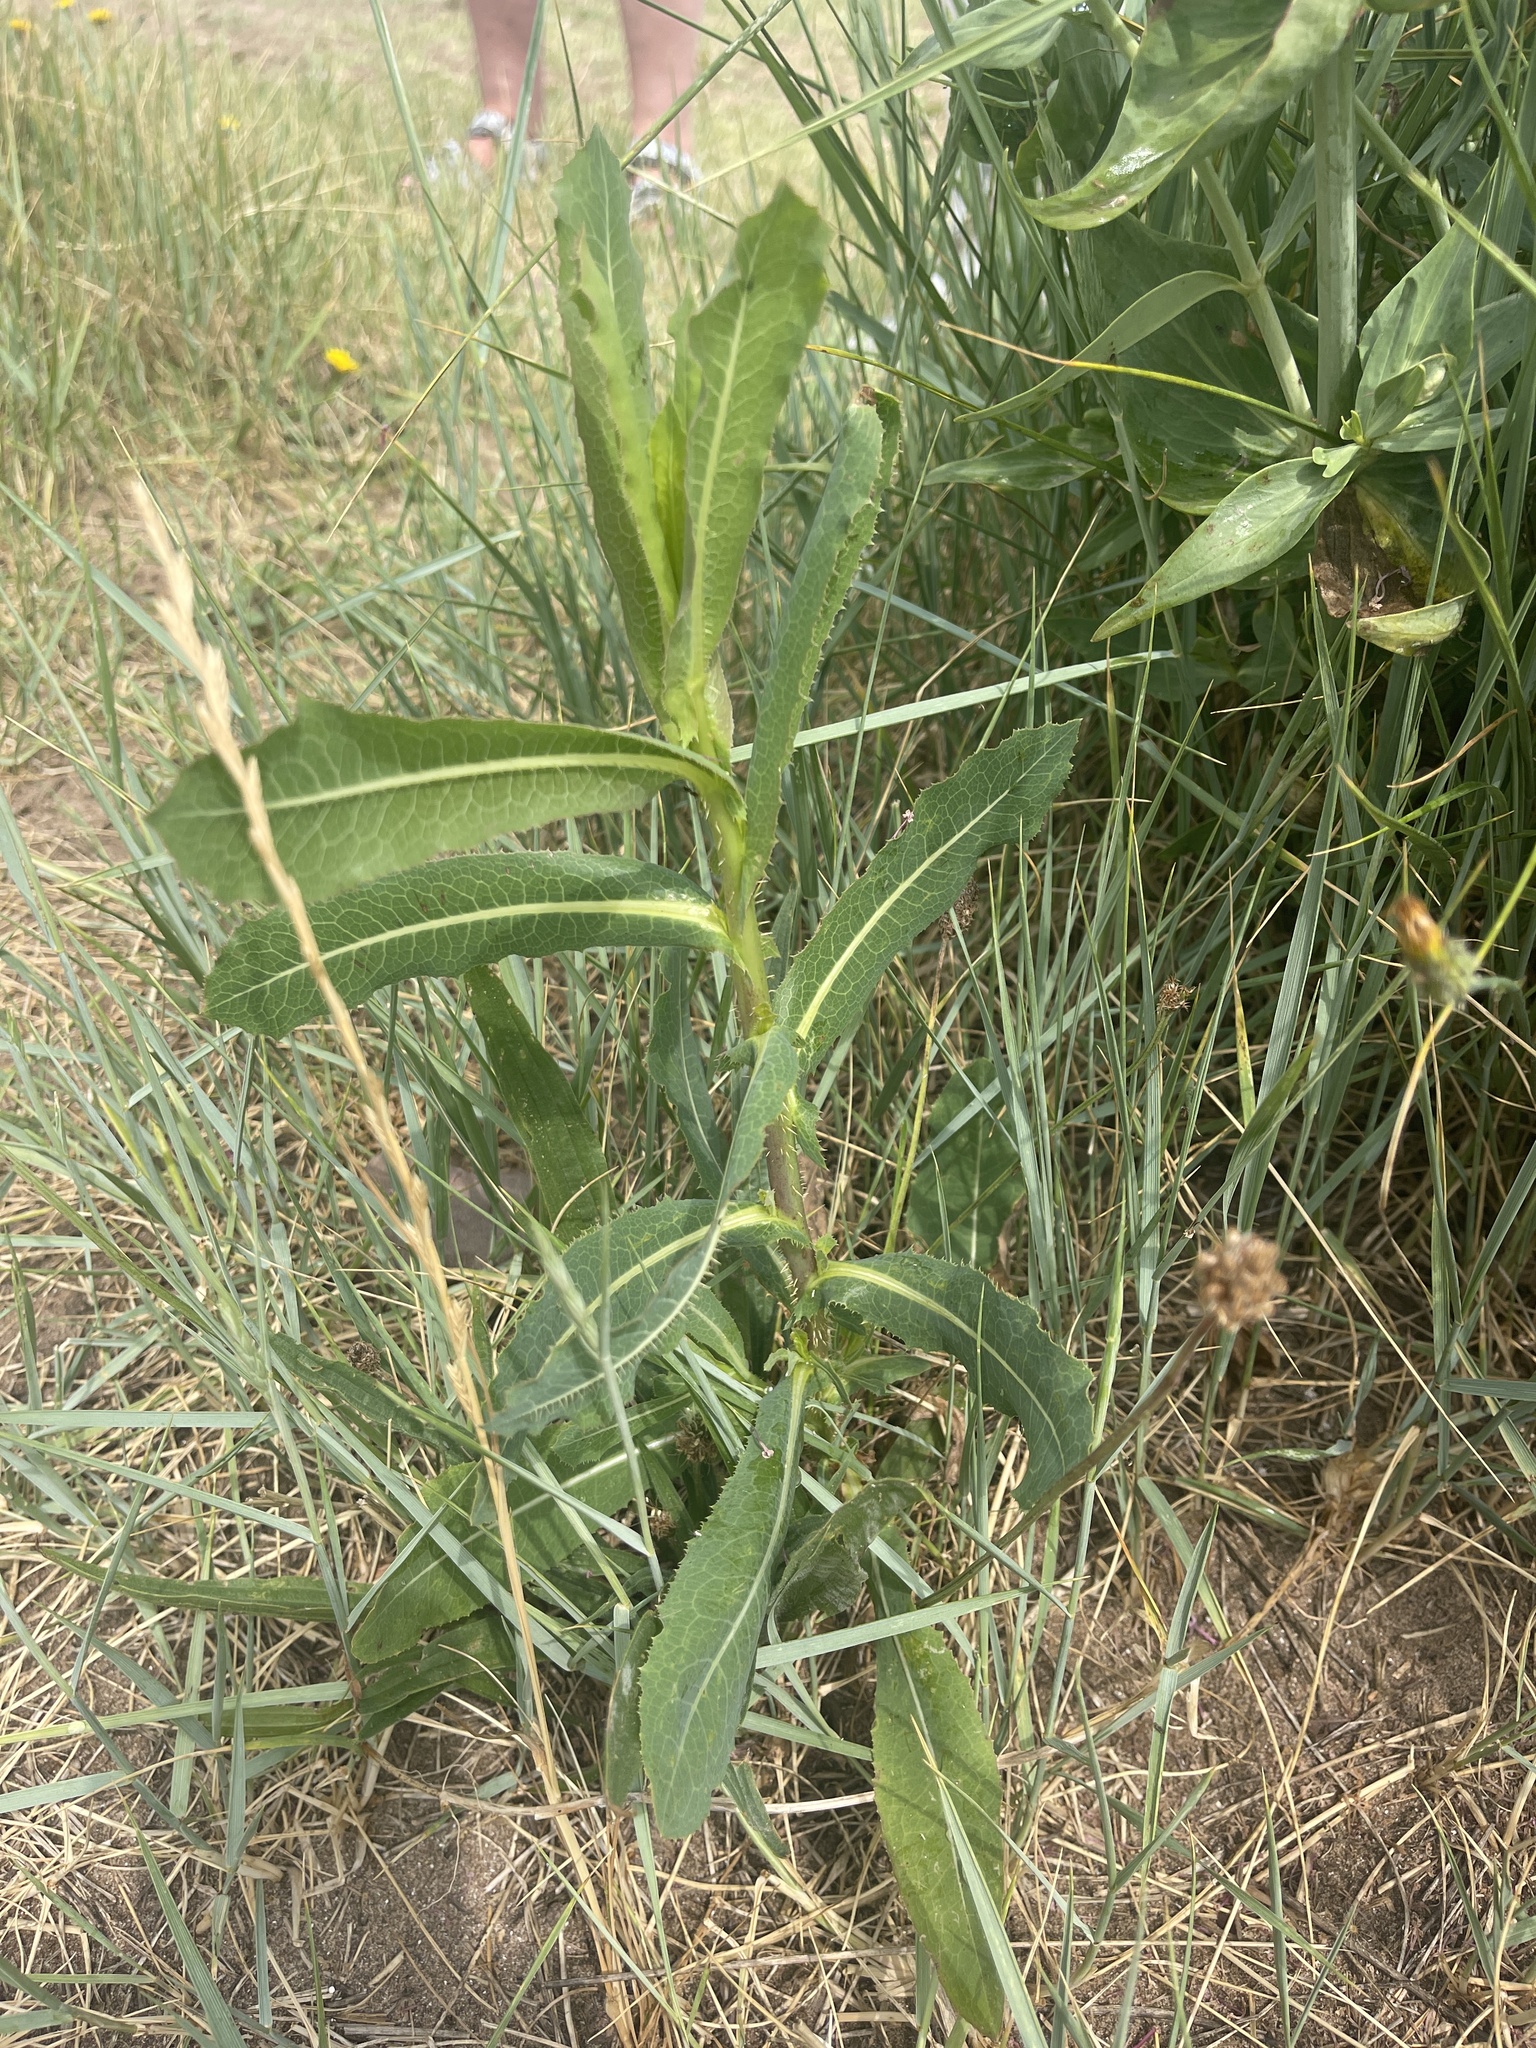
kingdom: Plantae
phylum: Tracheophyta
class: Magnoliopsida
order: Asterales
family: Asteraceae
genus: Lactuca
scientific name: Lactuca serriola
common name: Prickly lettuce
